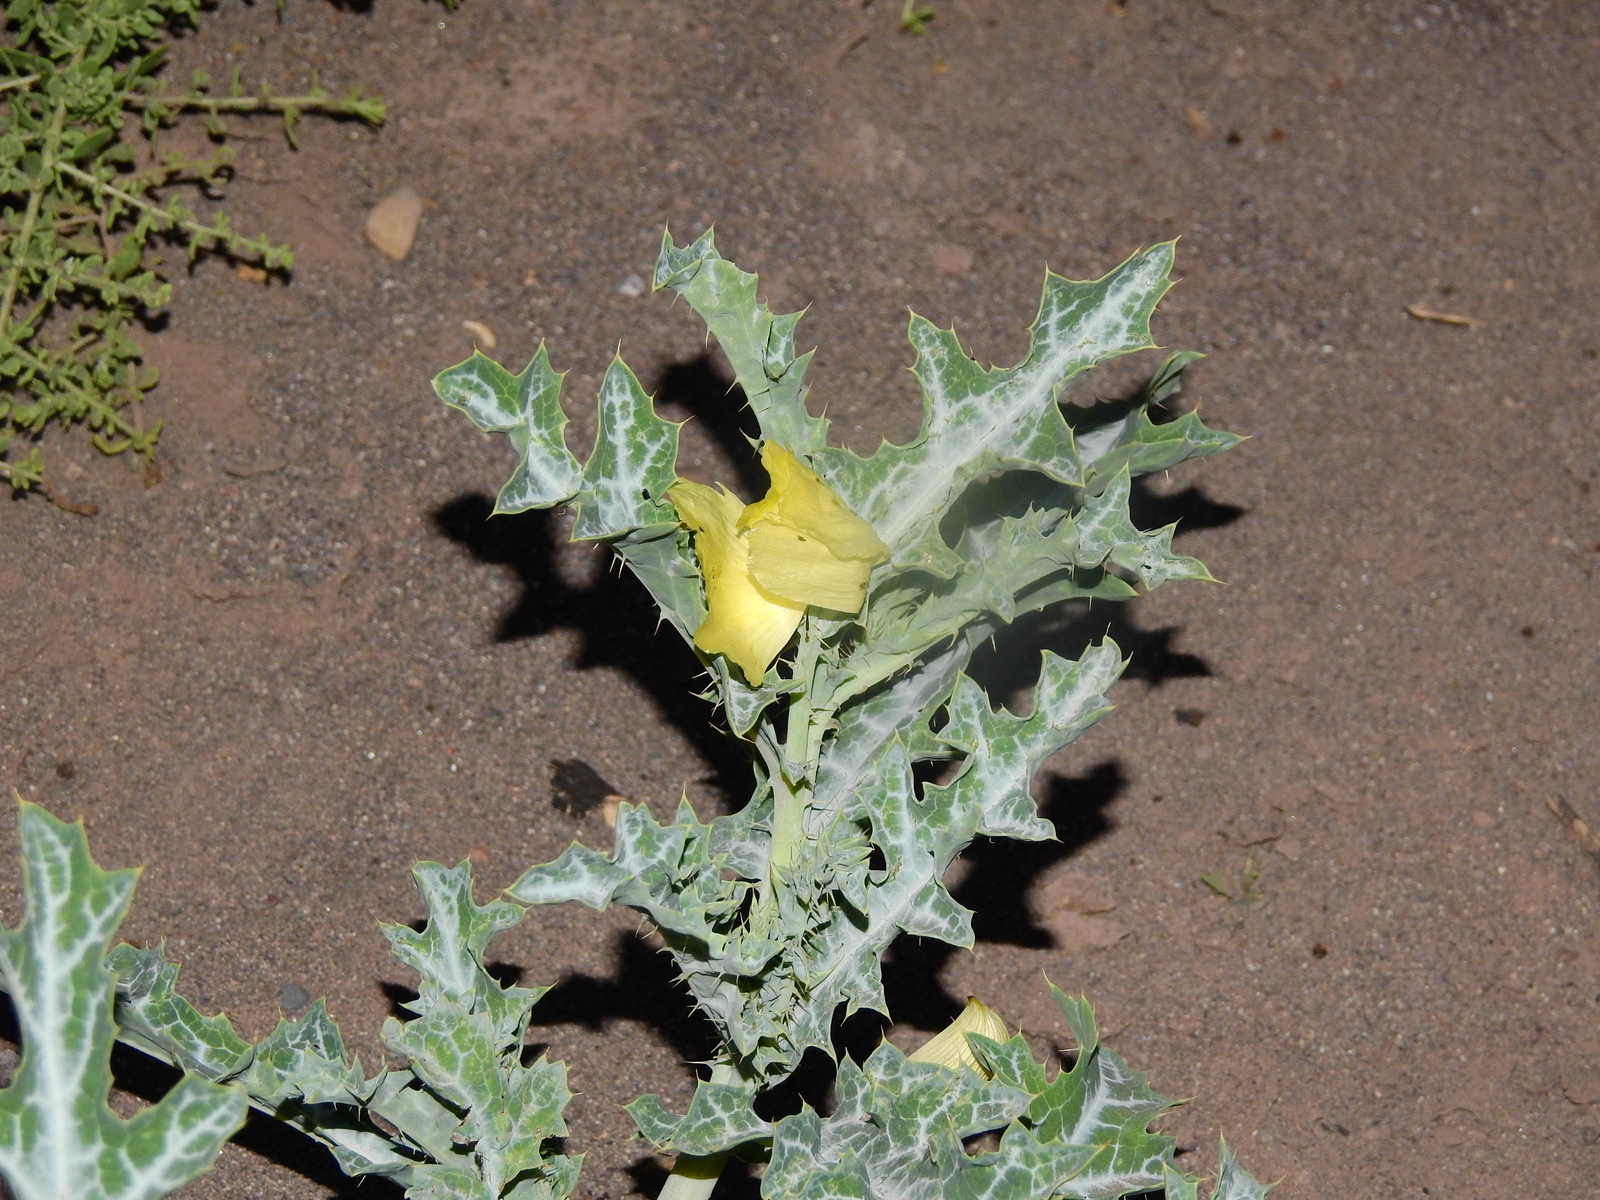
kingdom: Plantae
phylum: Tracheophyta
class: Magnoliopsida
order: Ranunculales
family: Papaveraceae
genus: Argemone
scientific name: Argemone subfusiformis
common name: American-poppy
